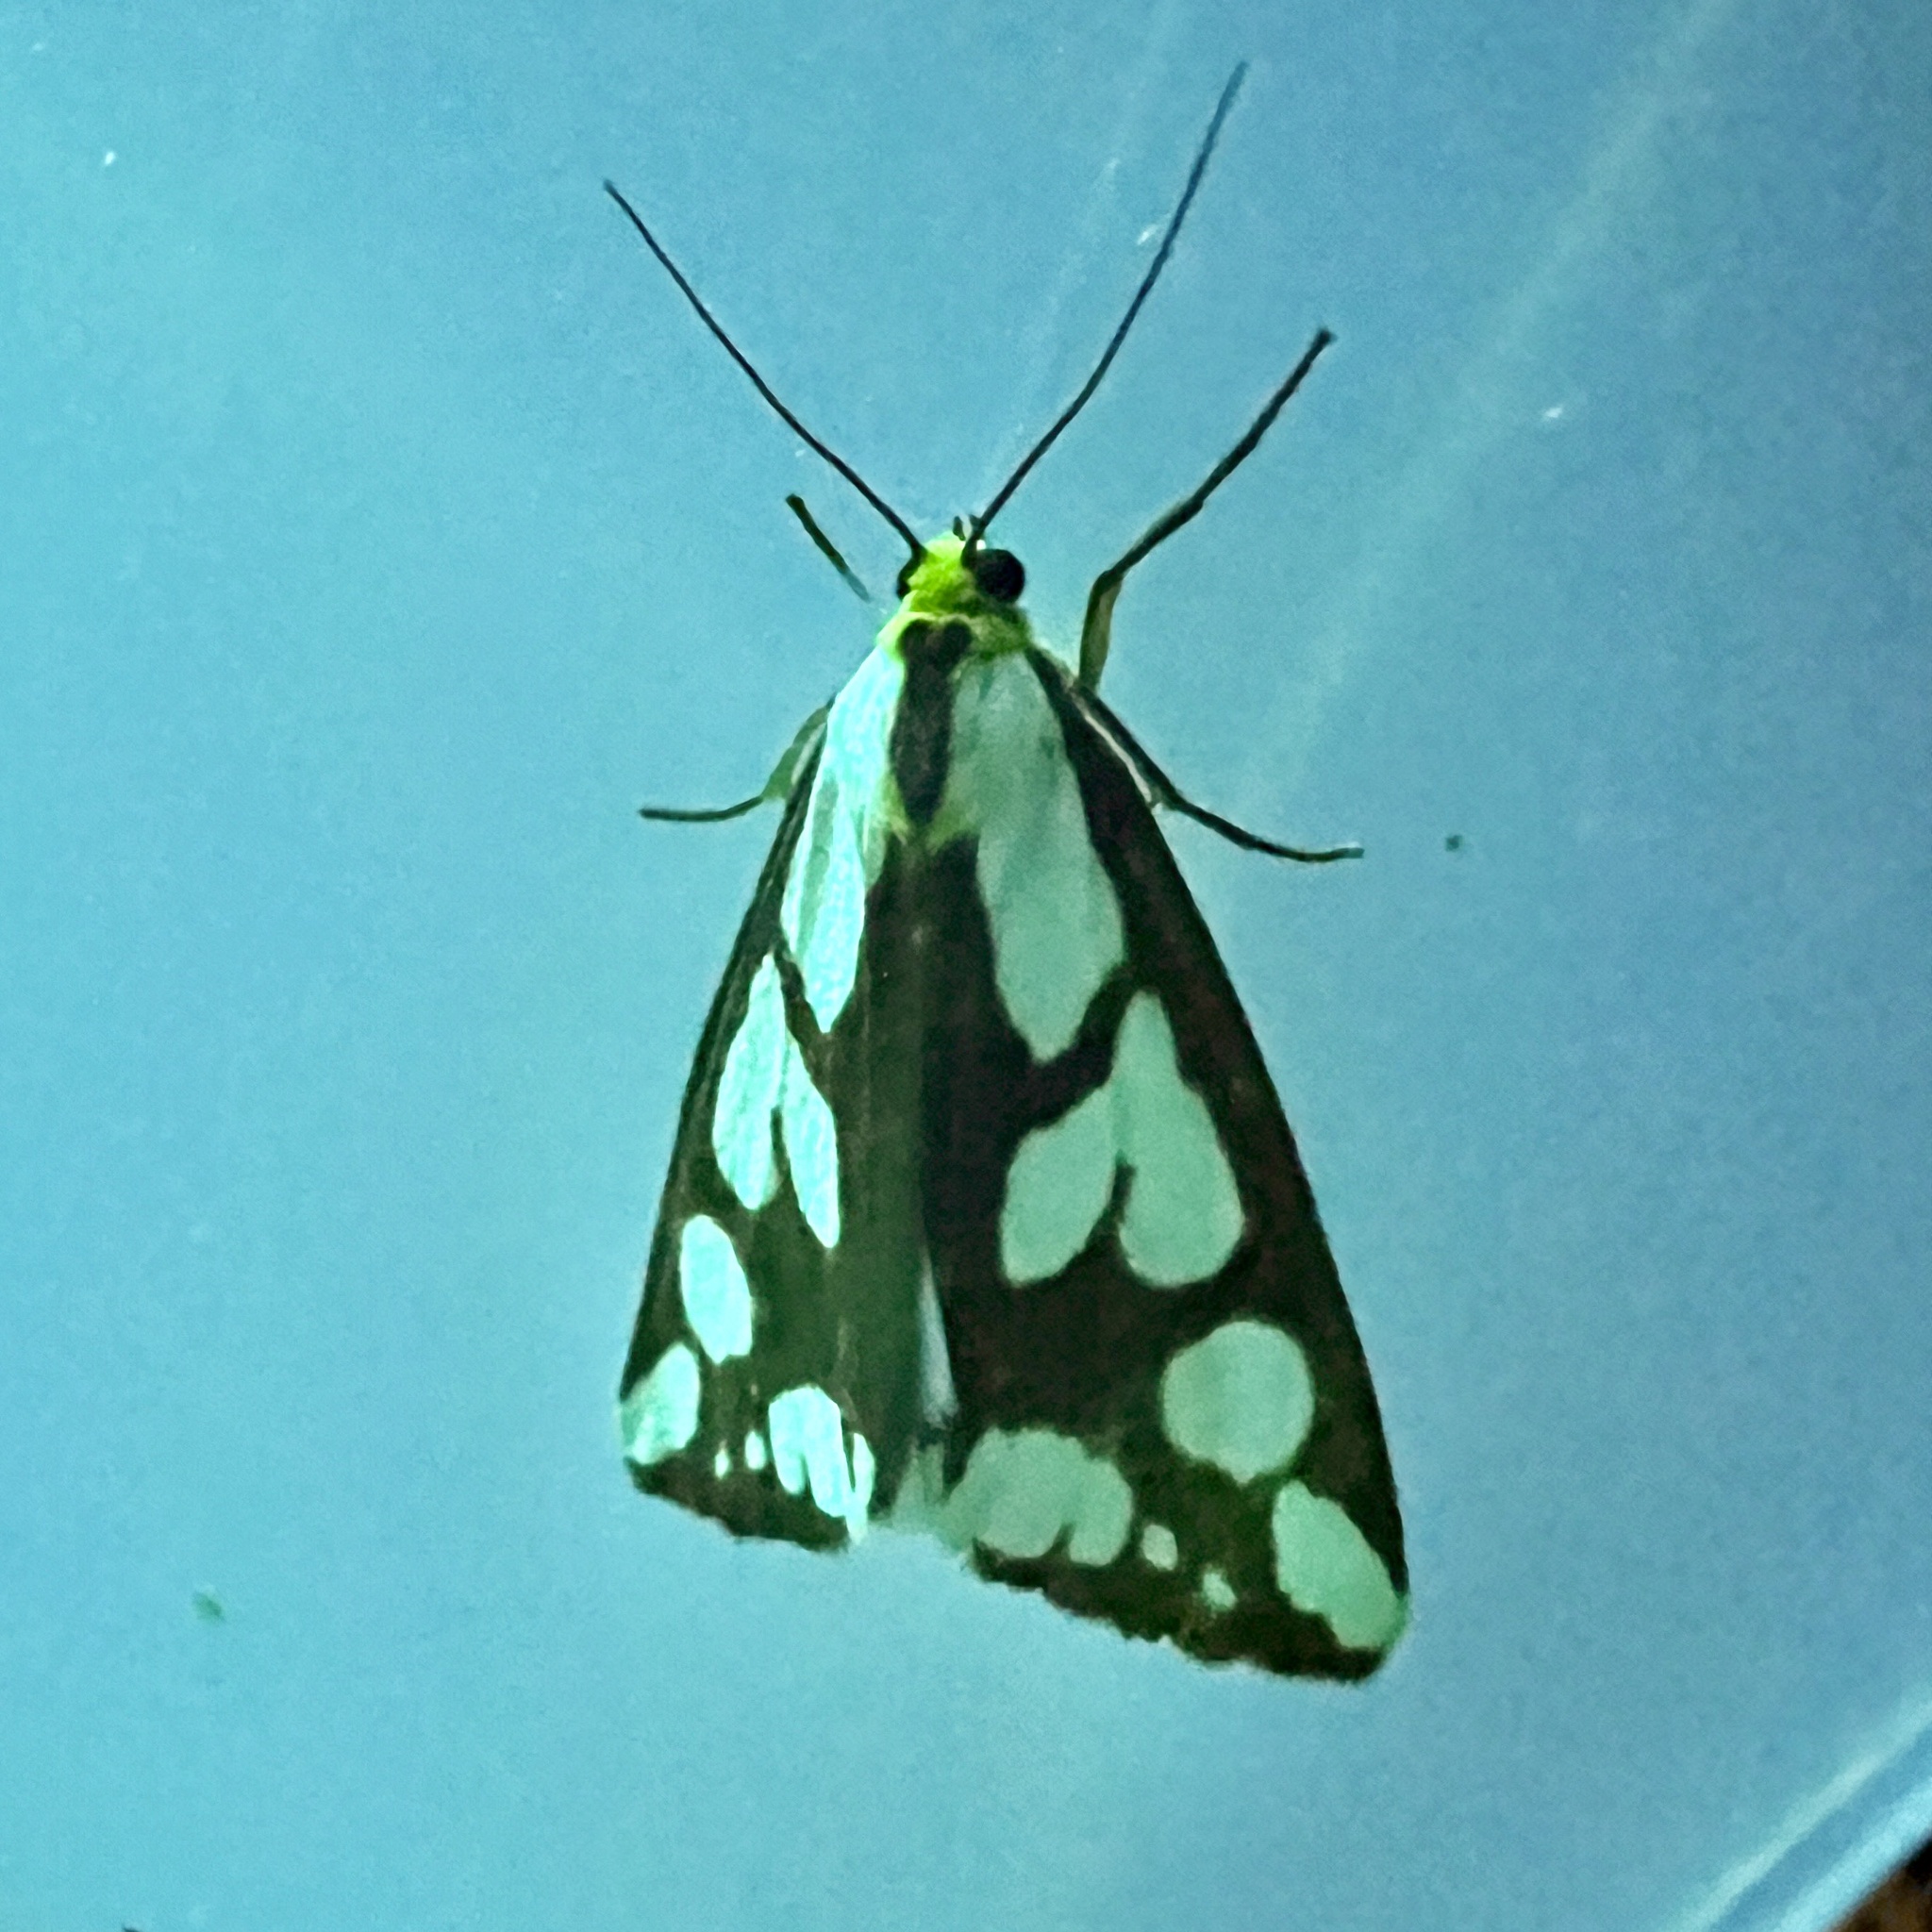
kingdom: Animalia
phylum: Arthropoda
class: Insecta
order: Lepidoptera
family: Erebidae
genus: Haploa
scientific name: Haploa confusa
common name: Confused haploa moth
